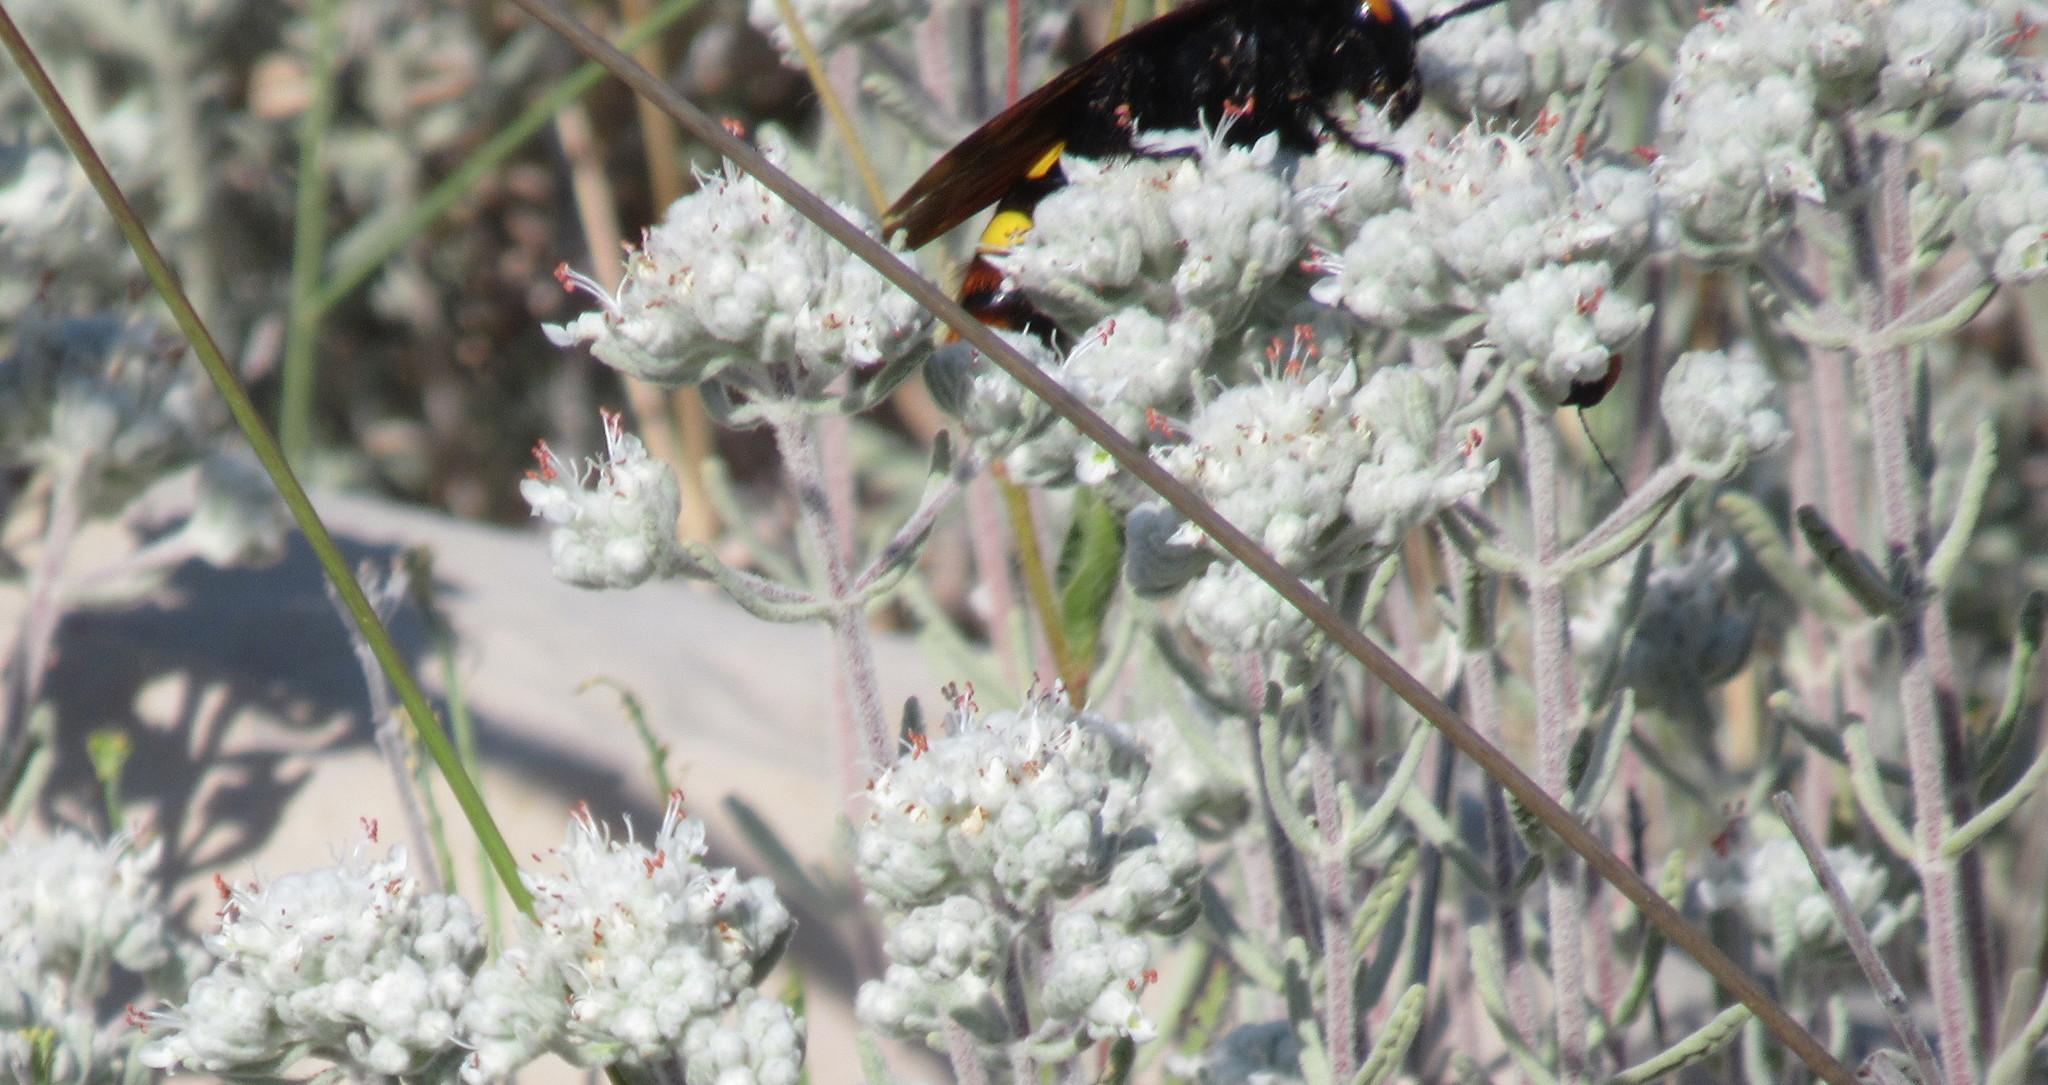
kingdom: Animalia
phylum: Arthropoda
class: Insecta
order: Hymenoptera
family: Scoliidae
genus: Megascolia
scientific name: Megascolia maculata
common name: Mammoth wasp
